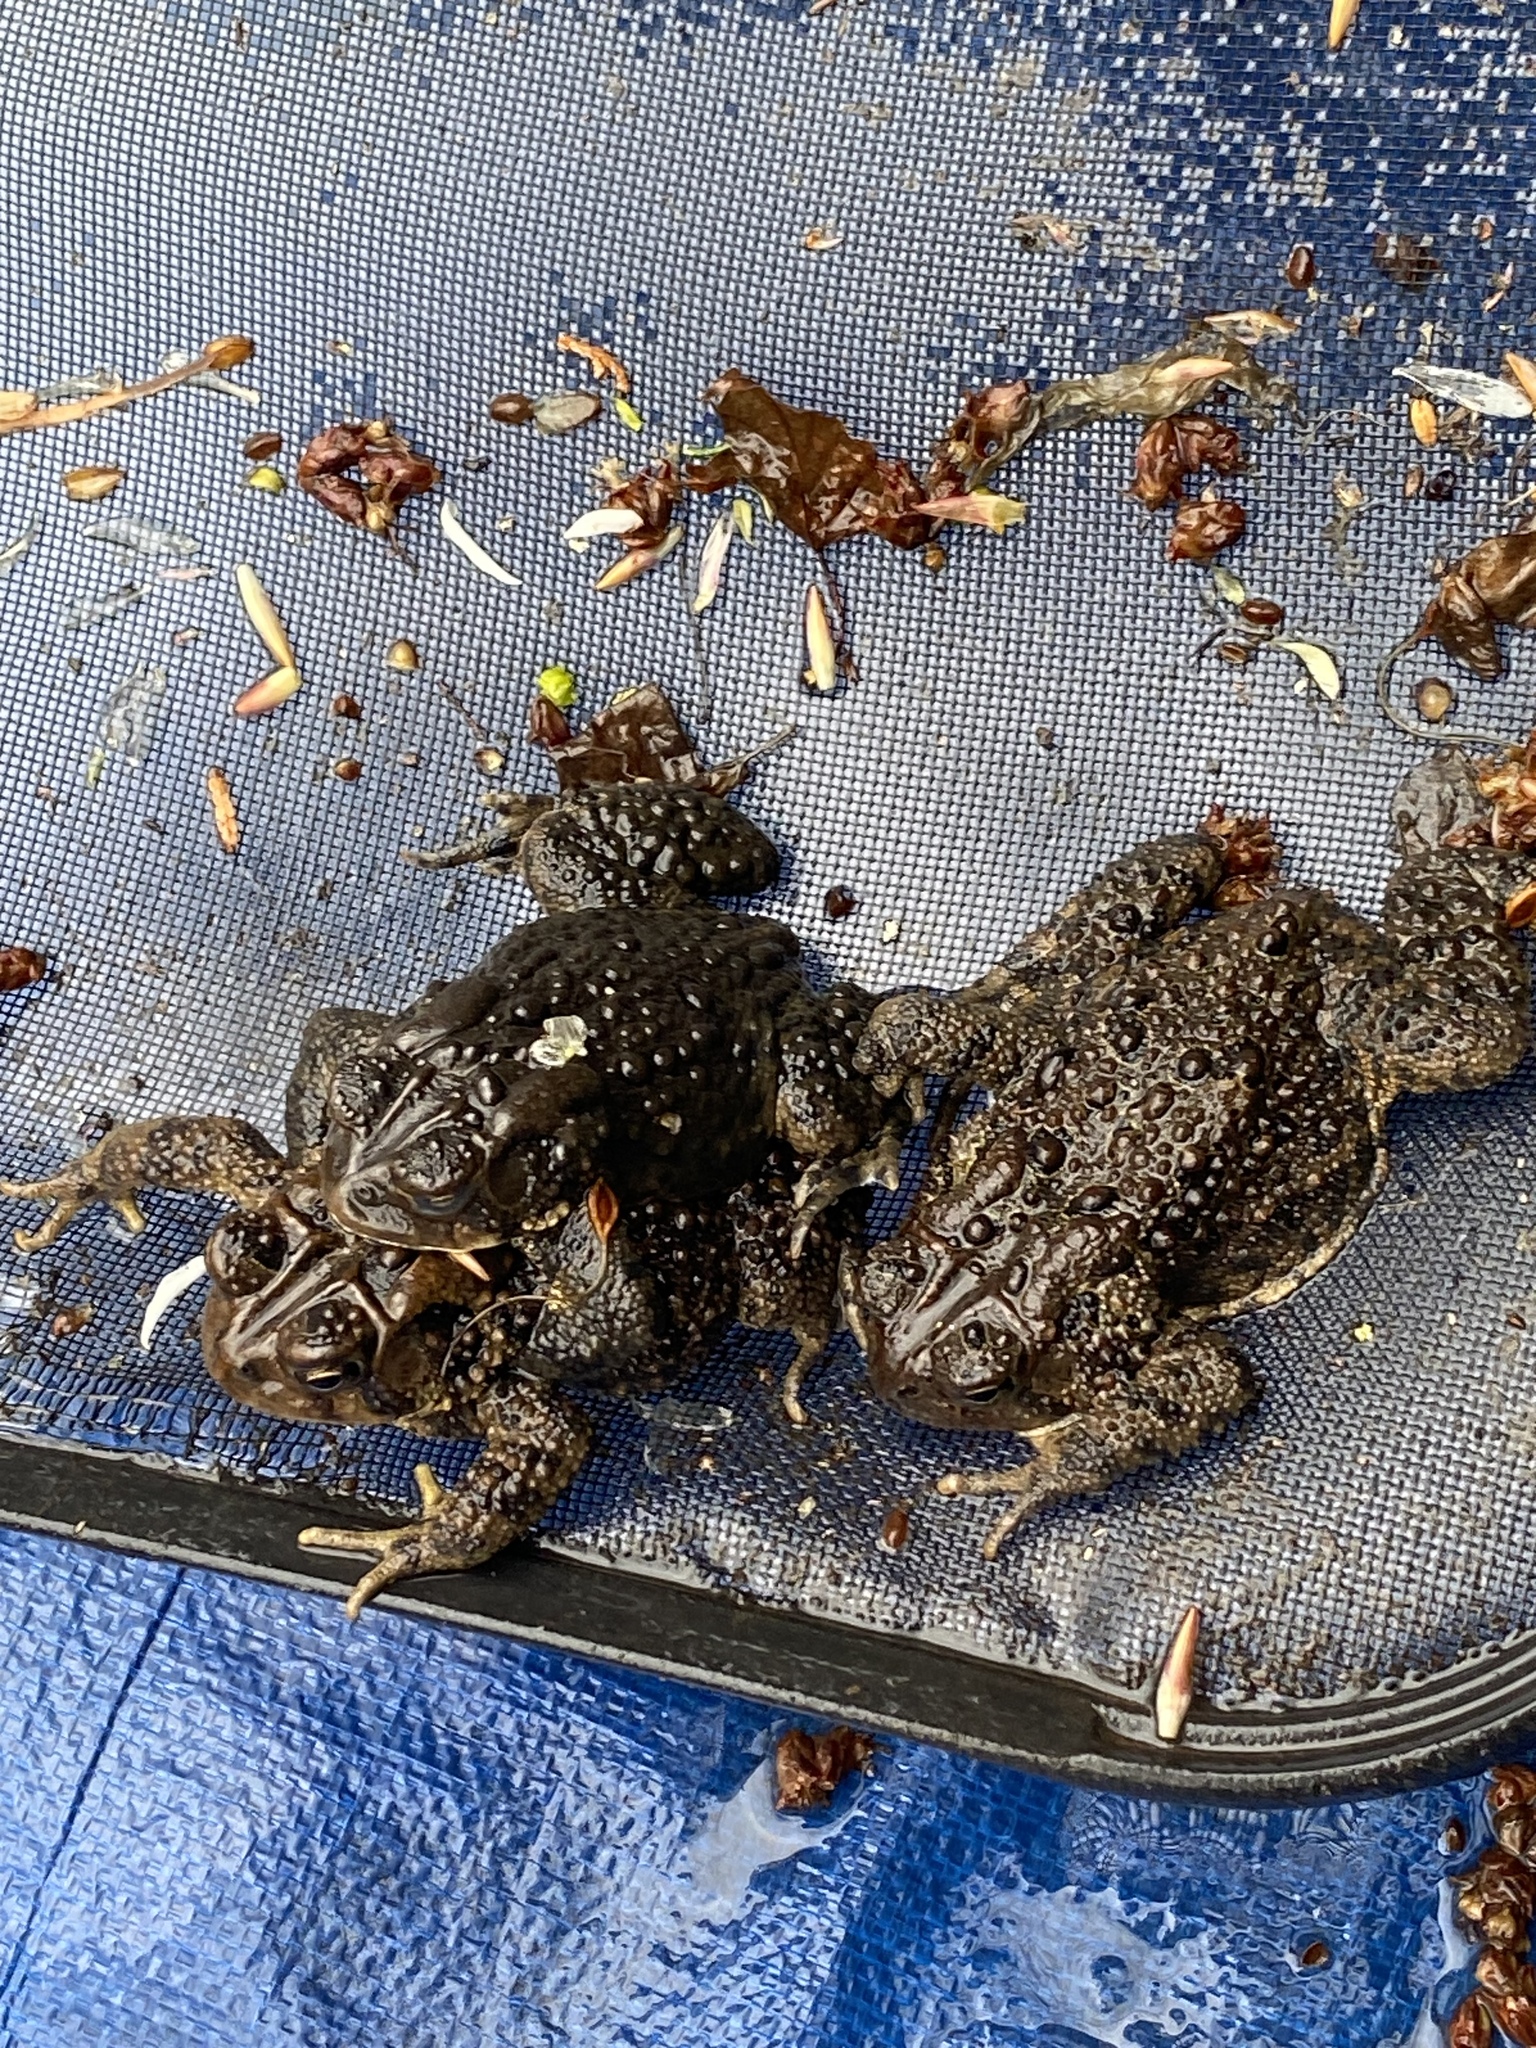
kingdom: Animalia
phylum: Chordata
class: Amphibia
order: Anura
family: Bufonidae
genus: Anaxyrus
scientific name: Anaxyrus americanus
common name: American toad
